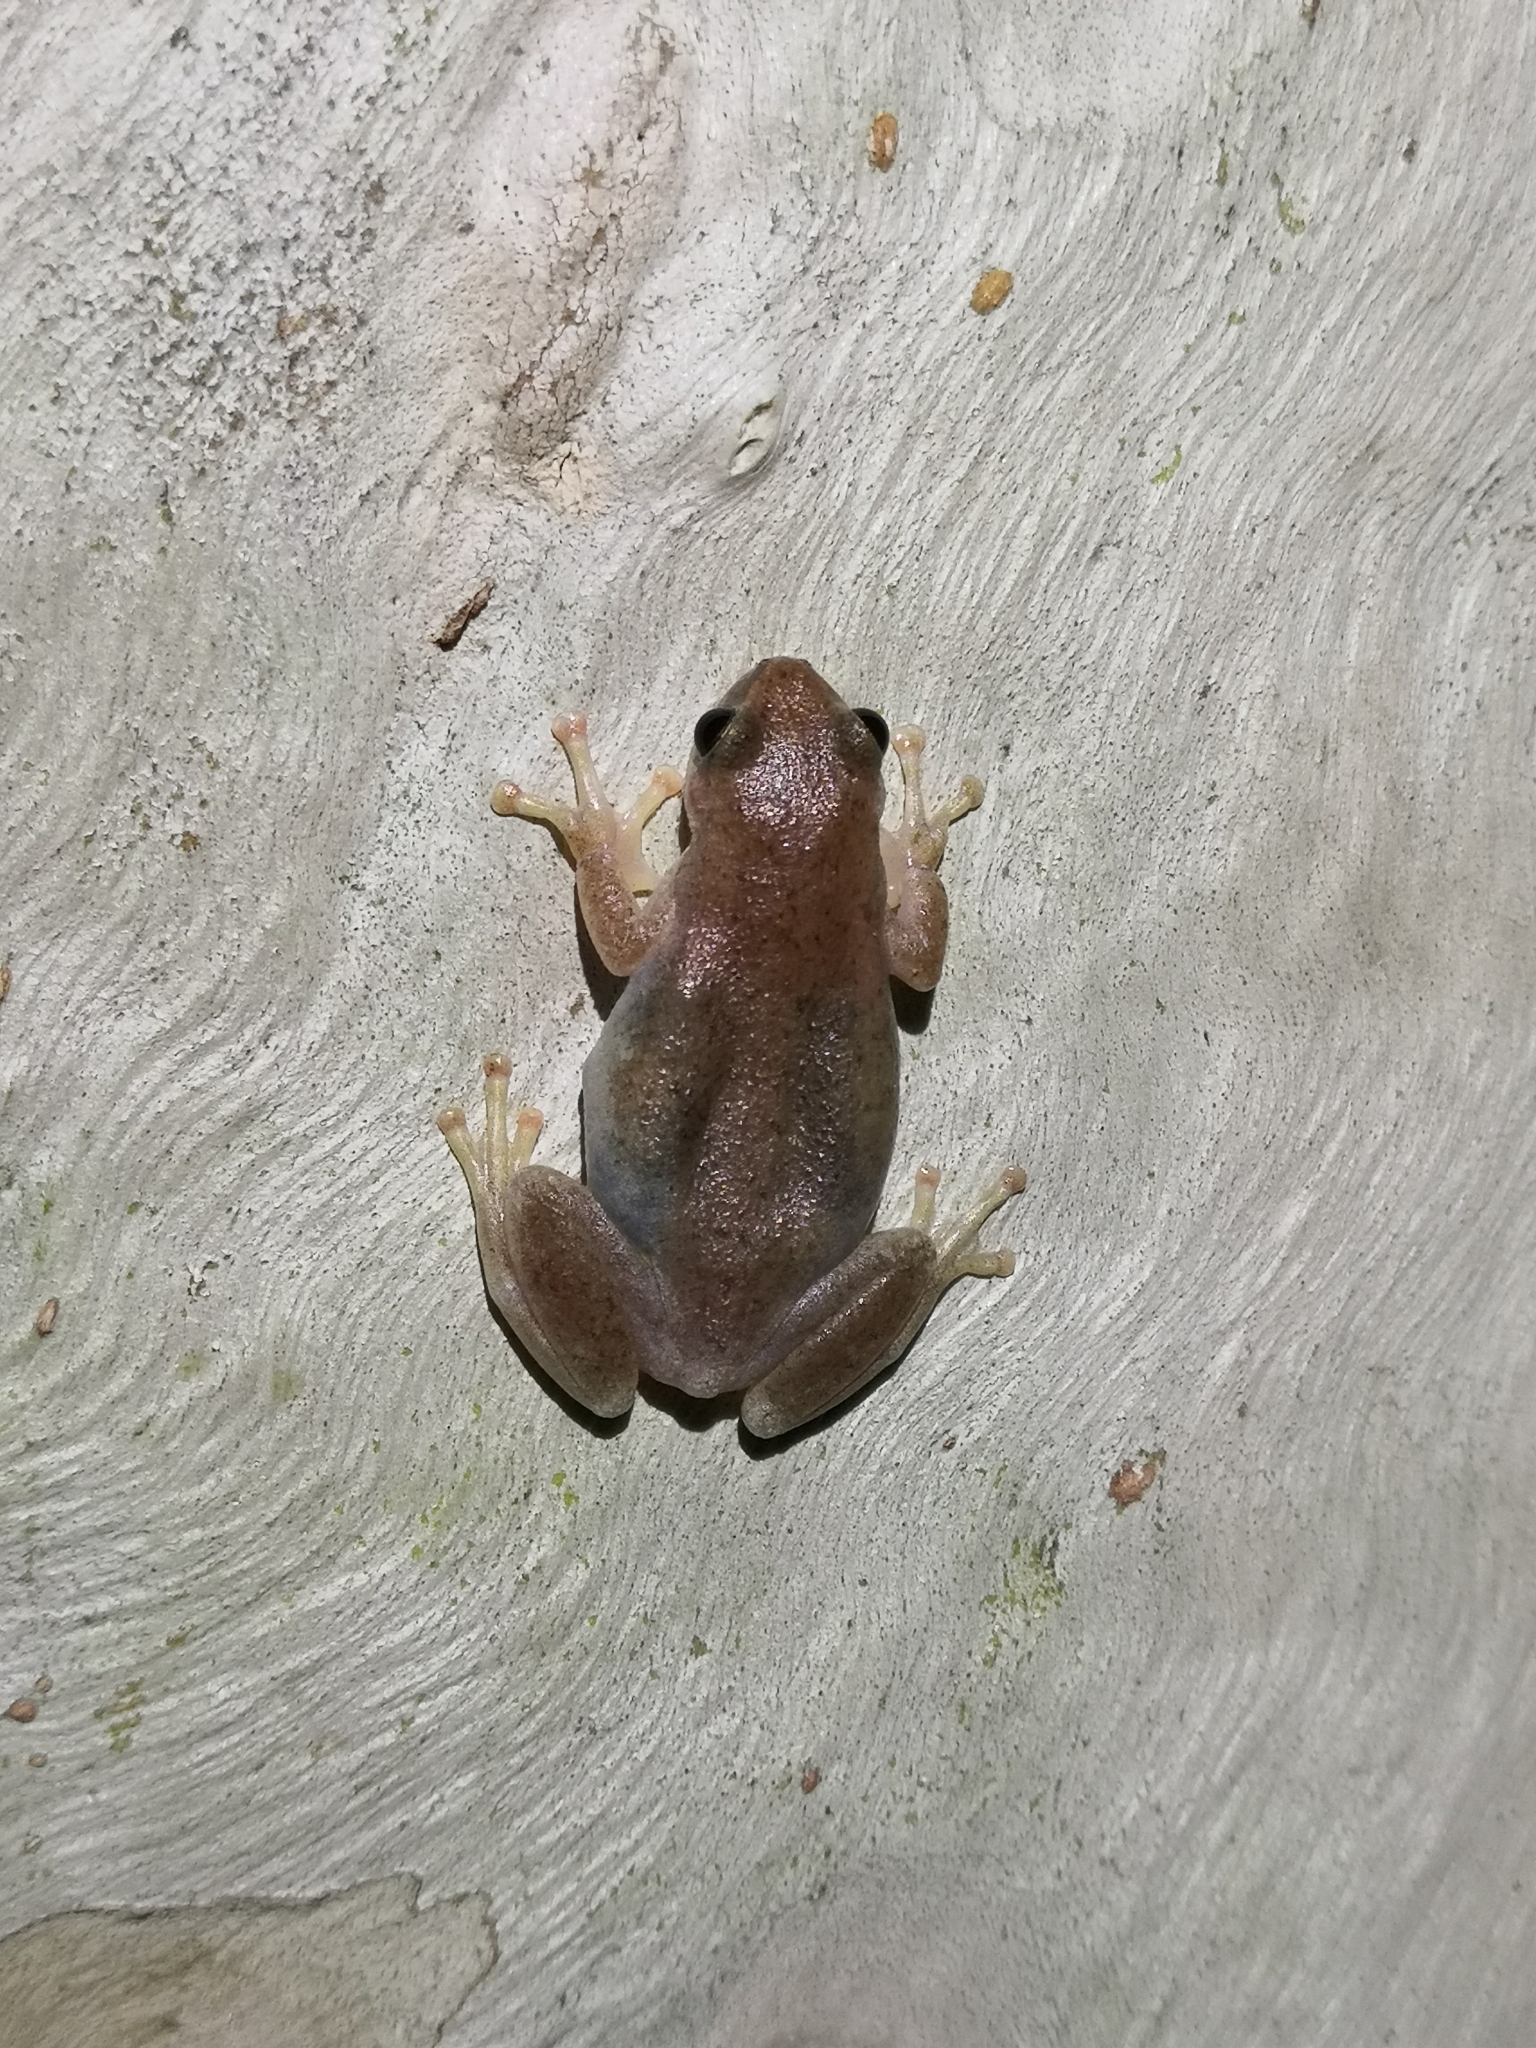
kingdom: Animalia
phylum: Chordata
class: Amphibia
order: Anura
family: Pelodryadidae
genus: Litoria
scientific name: Litoria rubella
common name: Desert tree frog
